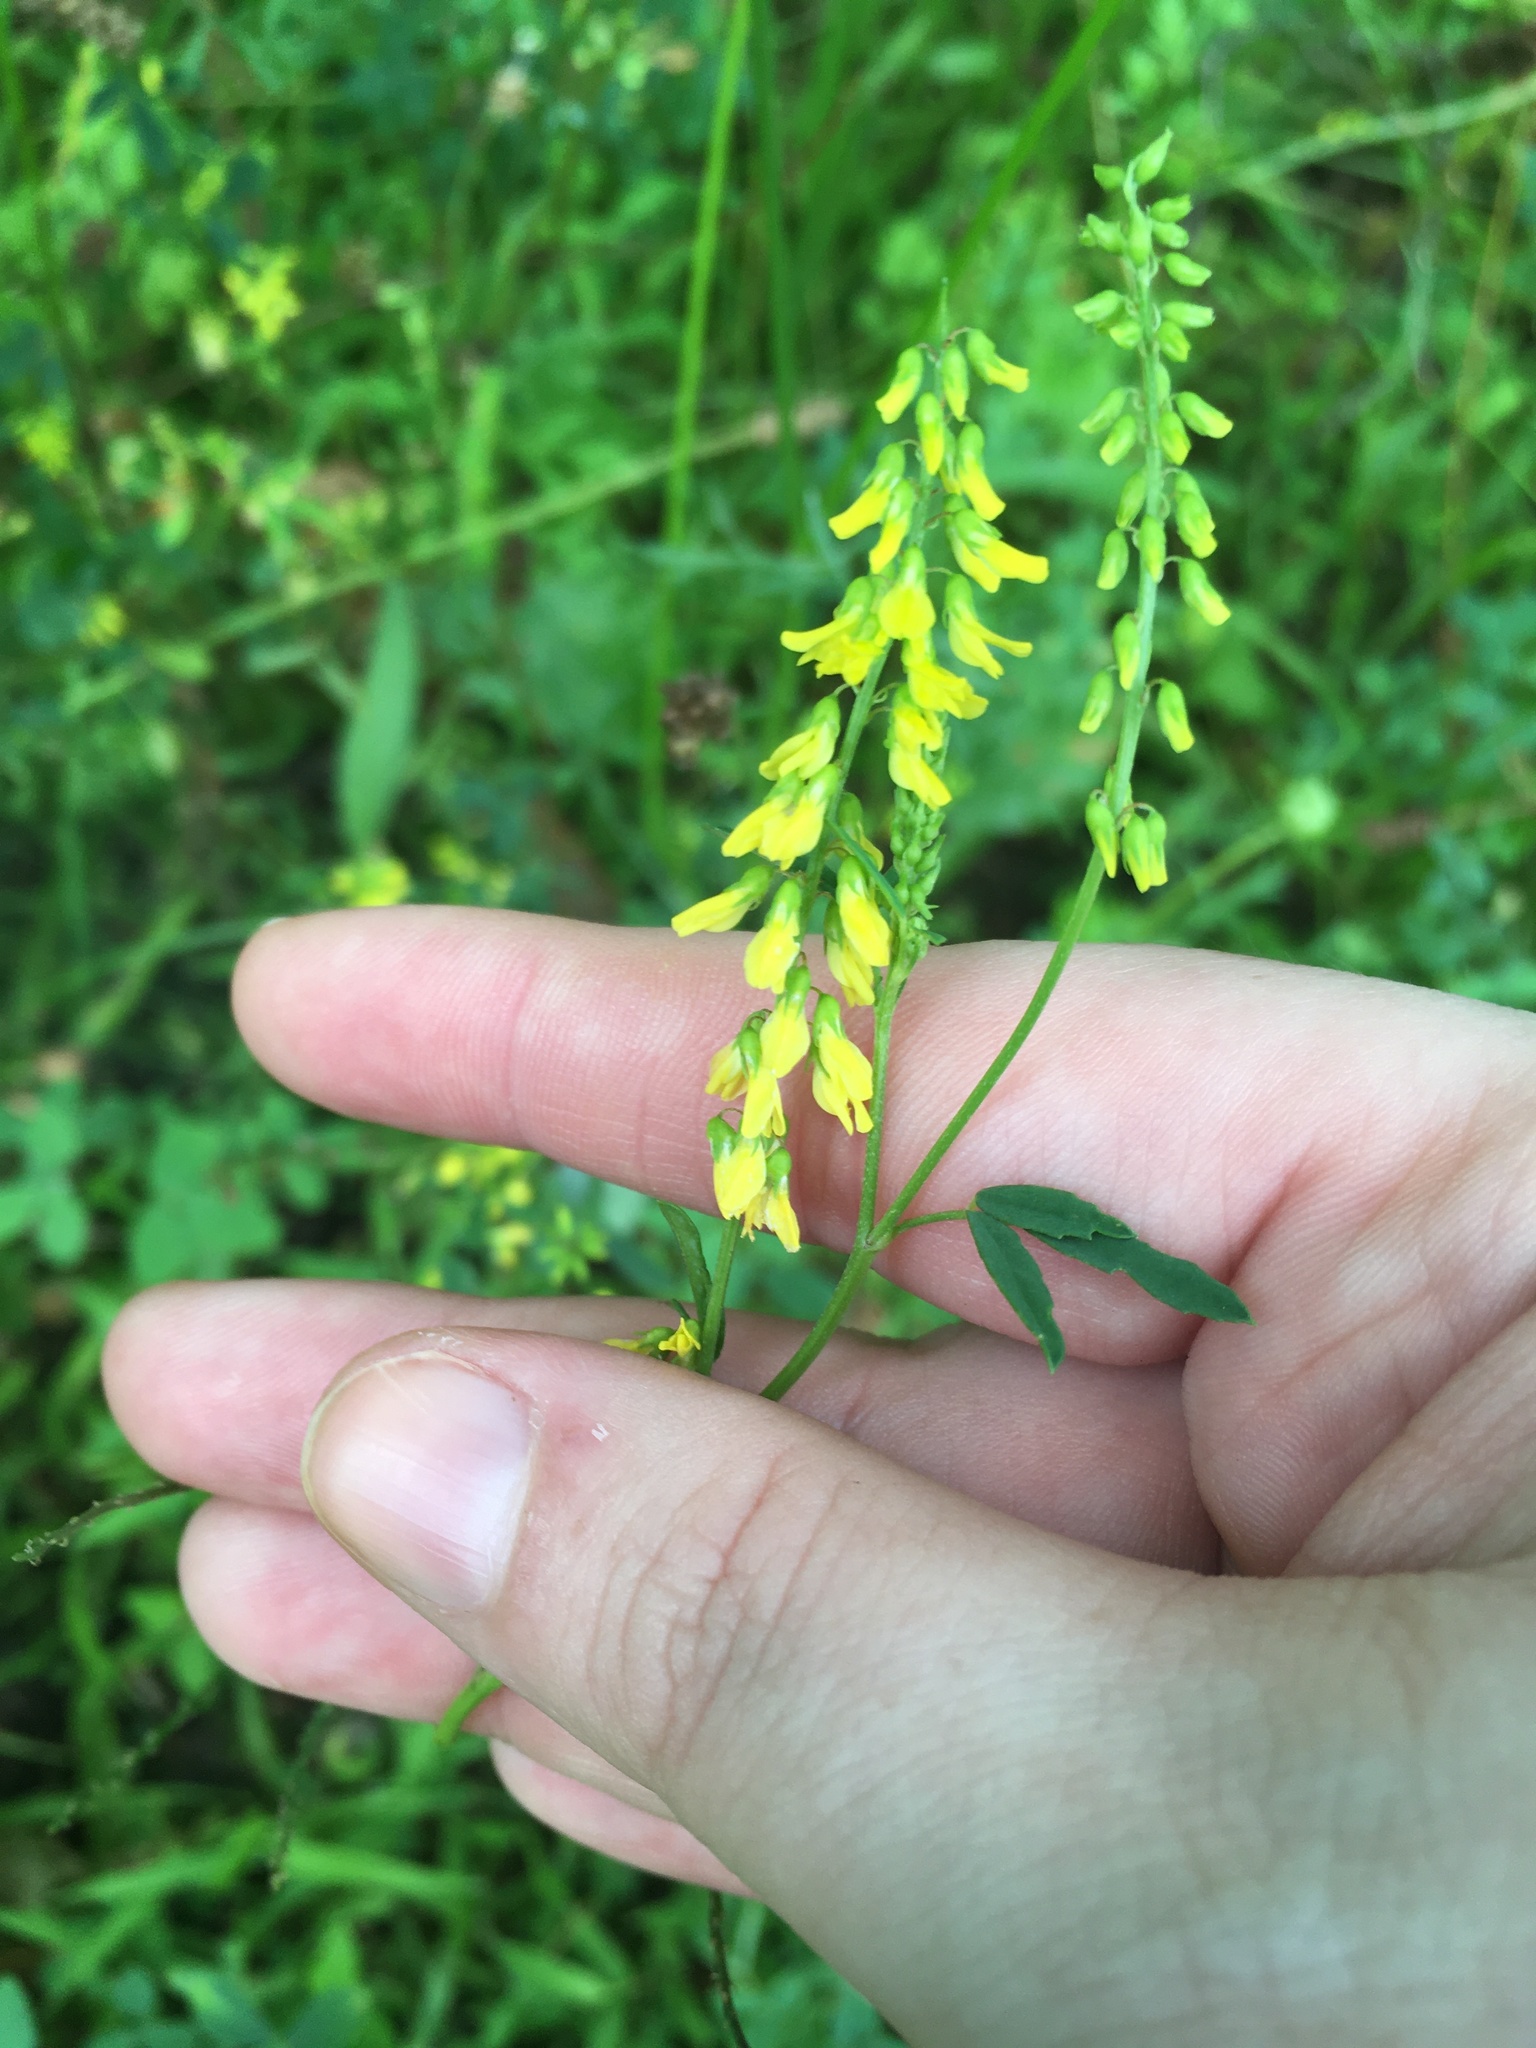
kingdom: Plantae
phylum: Tracheophyta
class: Magnoliopsida
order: Fabales
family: Fabaceae
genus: Melilotus
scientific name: Melilotus officinalis
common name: Sweetclover
